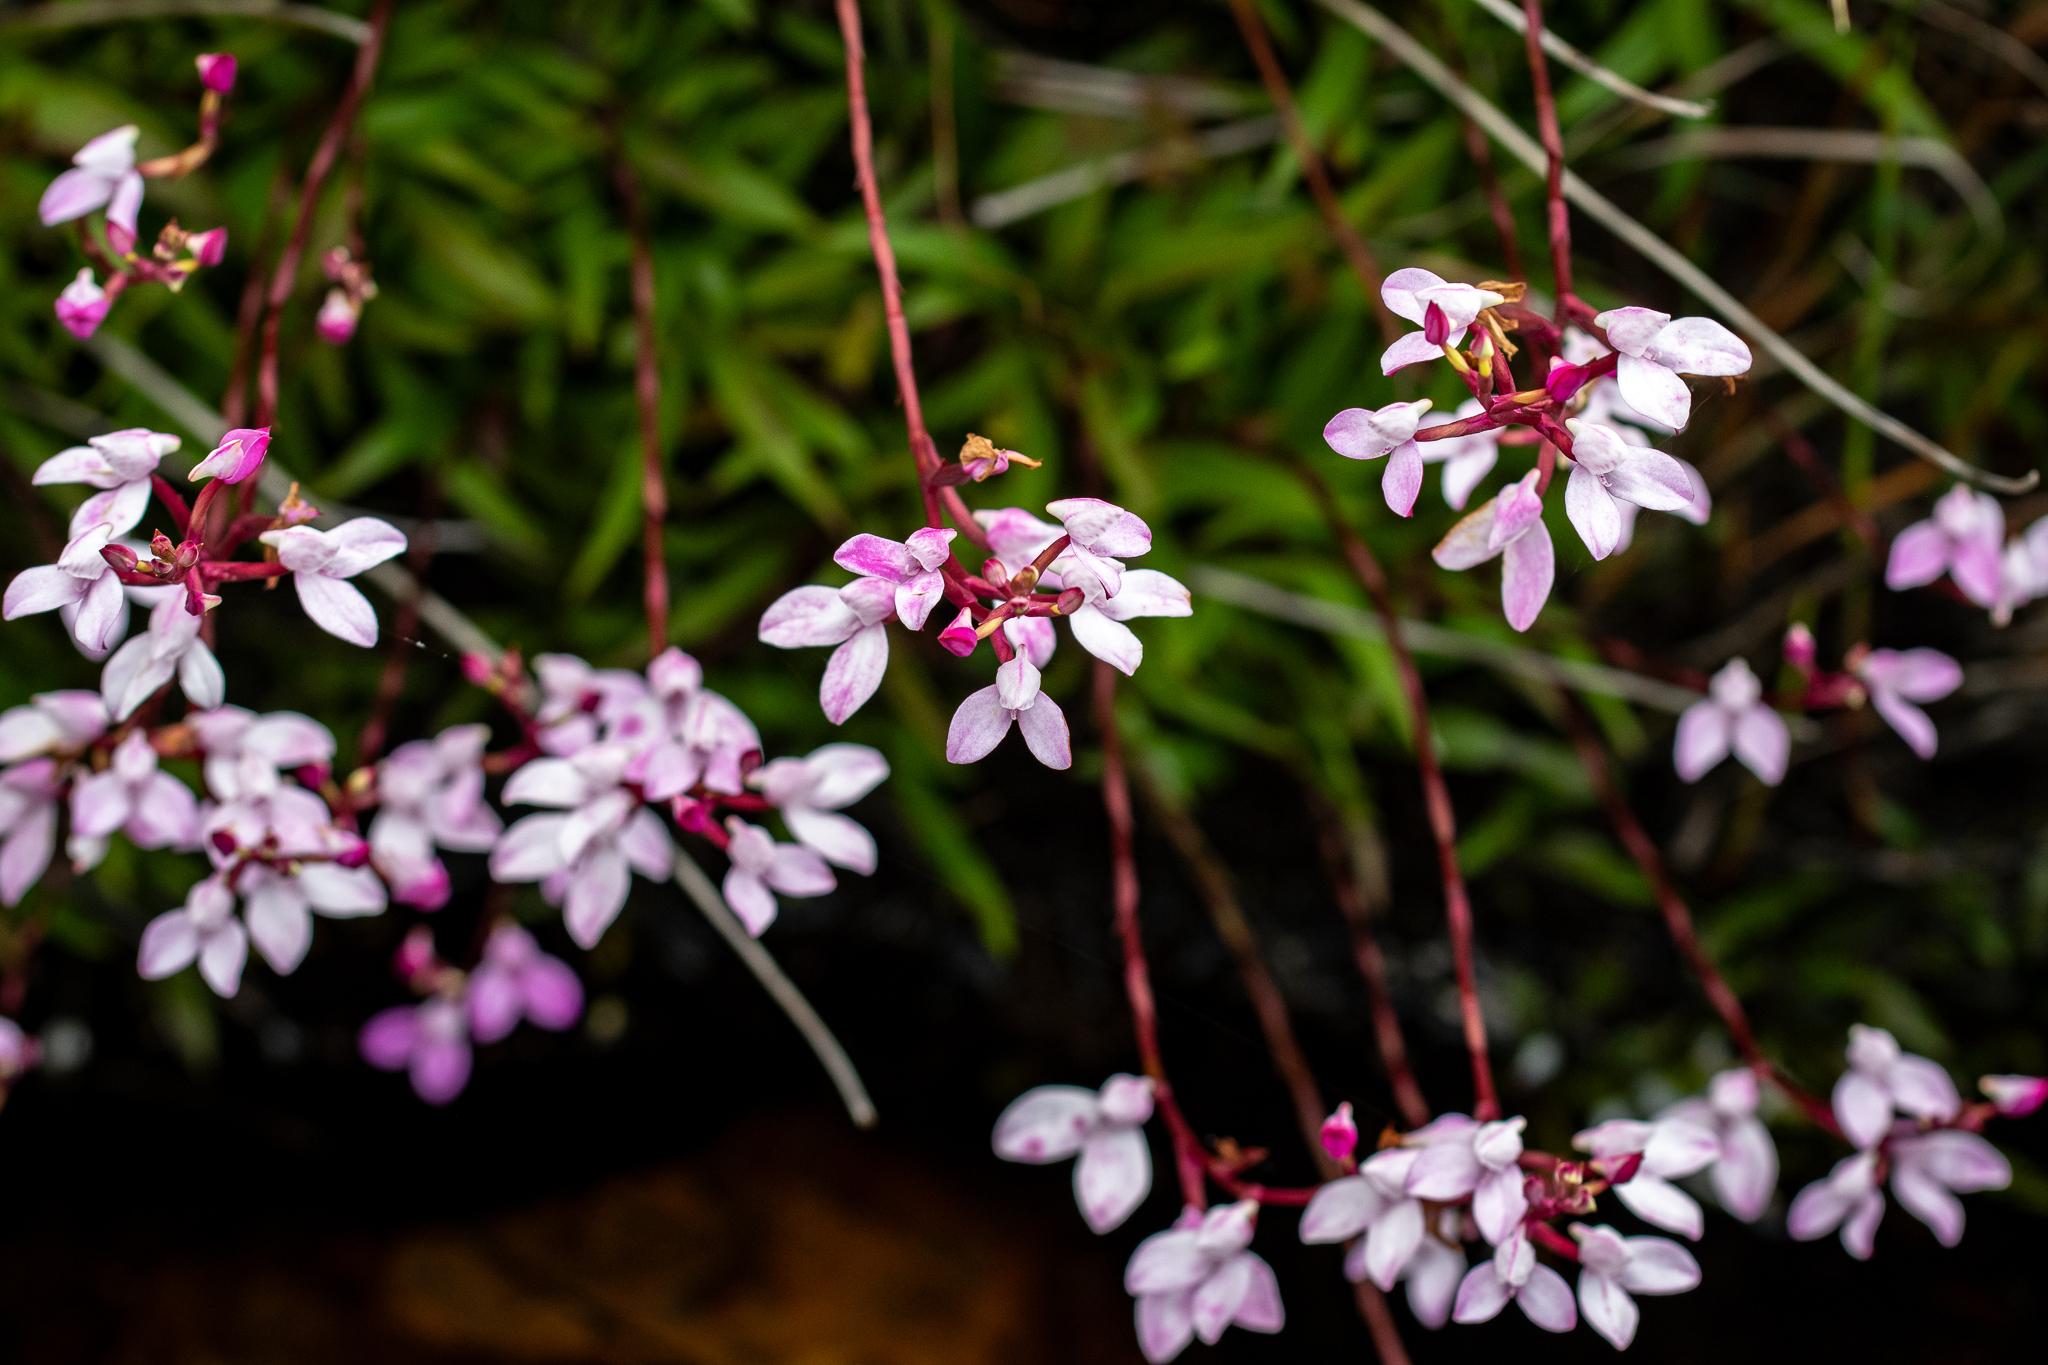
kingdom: Plantae
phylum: Tracheophyta
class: Liliopsida
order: Asparagales
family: Orchidaceae
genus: Disa
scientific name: Disa tripetaloides
